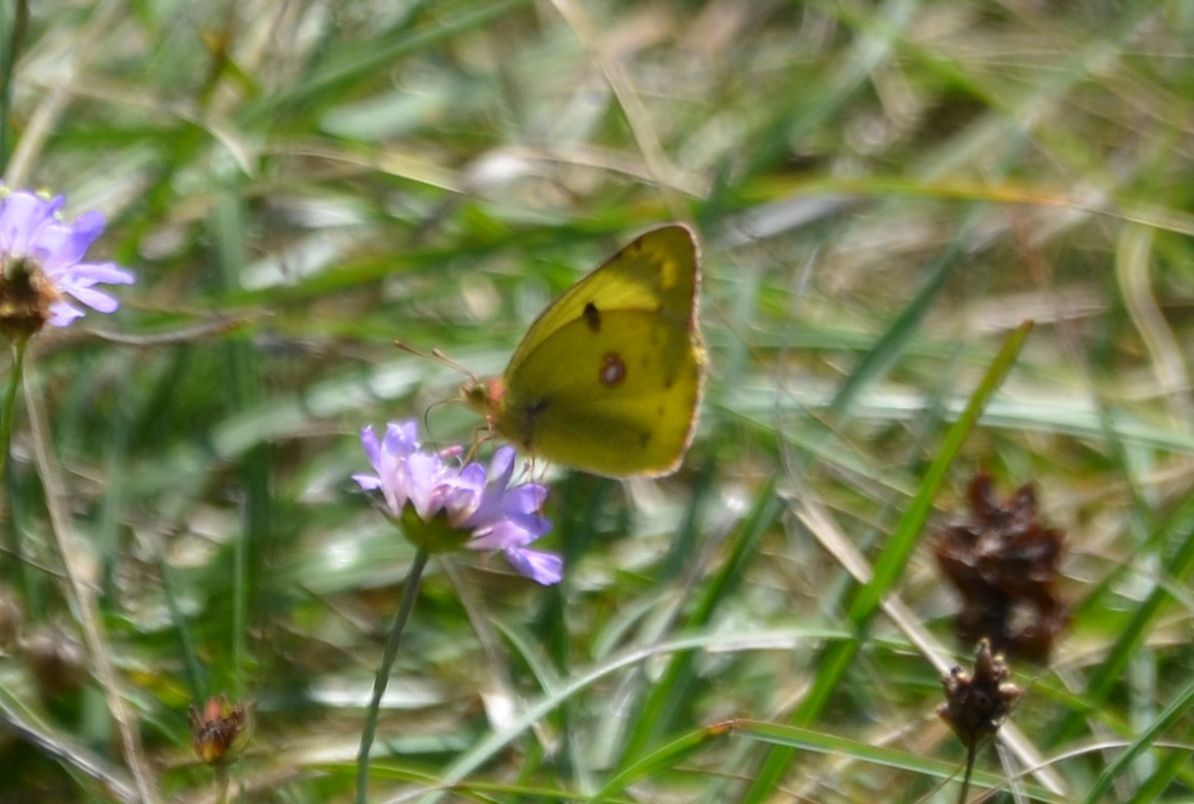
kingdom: Animalia
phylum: Arthropoda
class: Insecta
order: Lepidoptera
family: Pieridae
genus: Colias
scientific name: Colias alfacariensis
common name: Berger's clouded yellow
